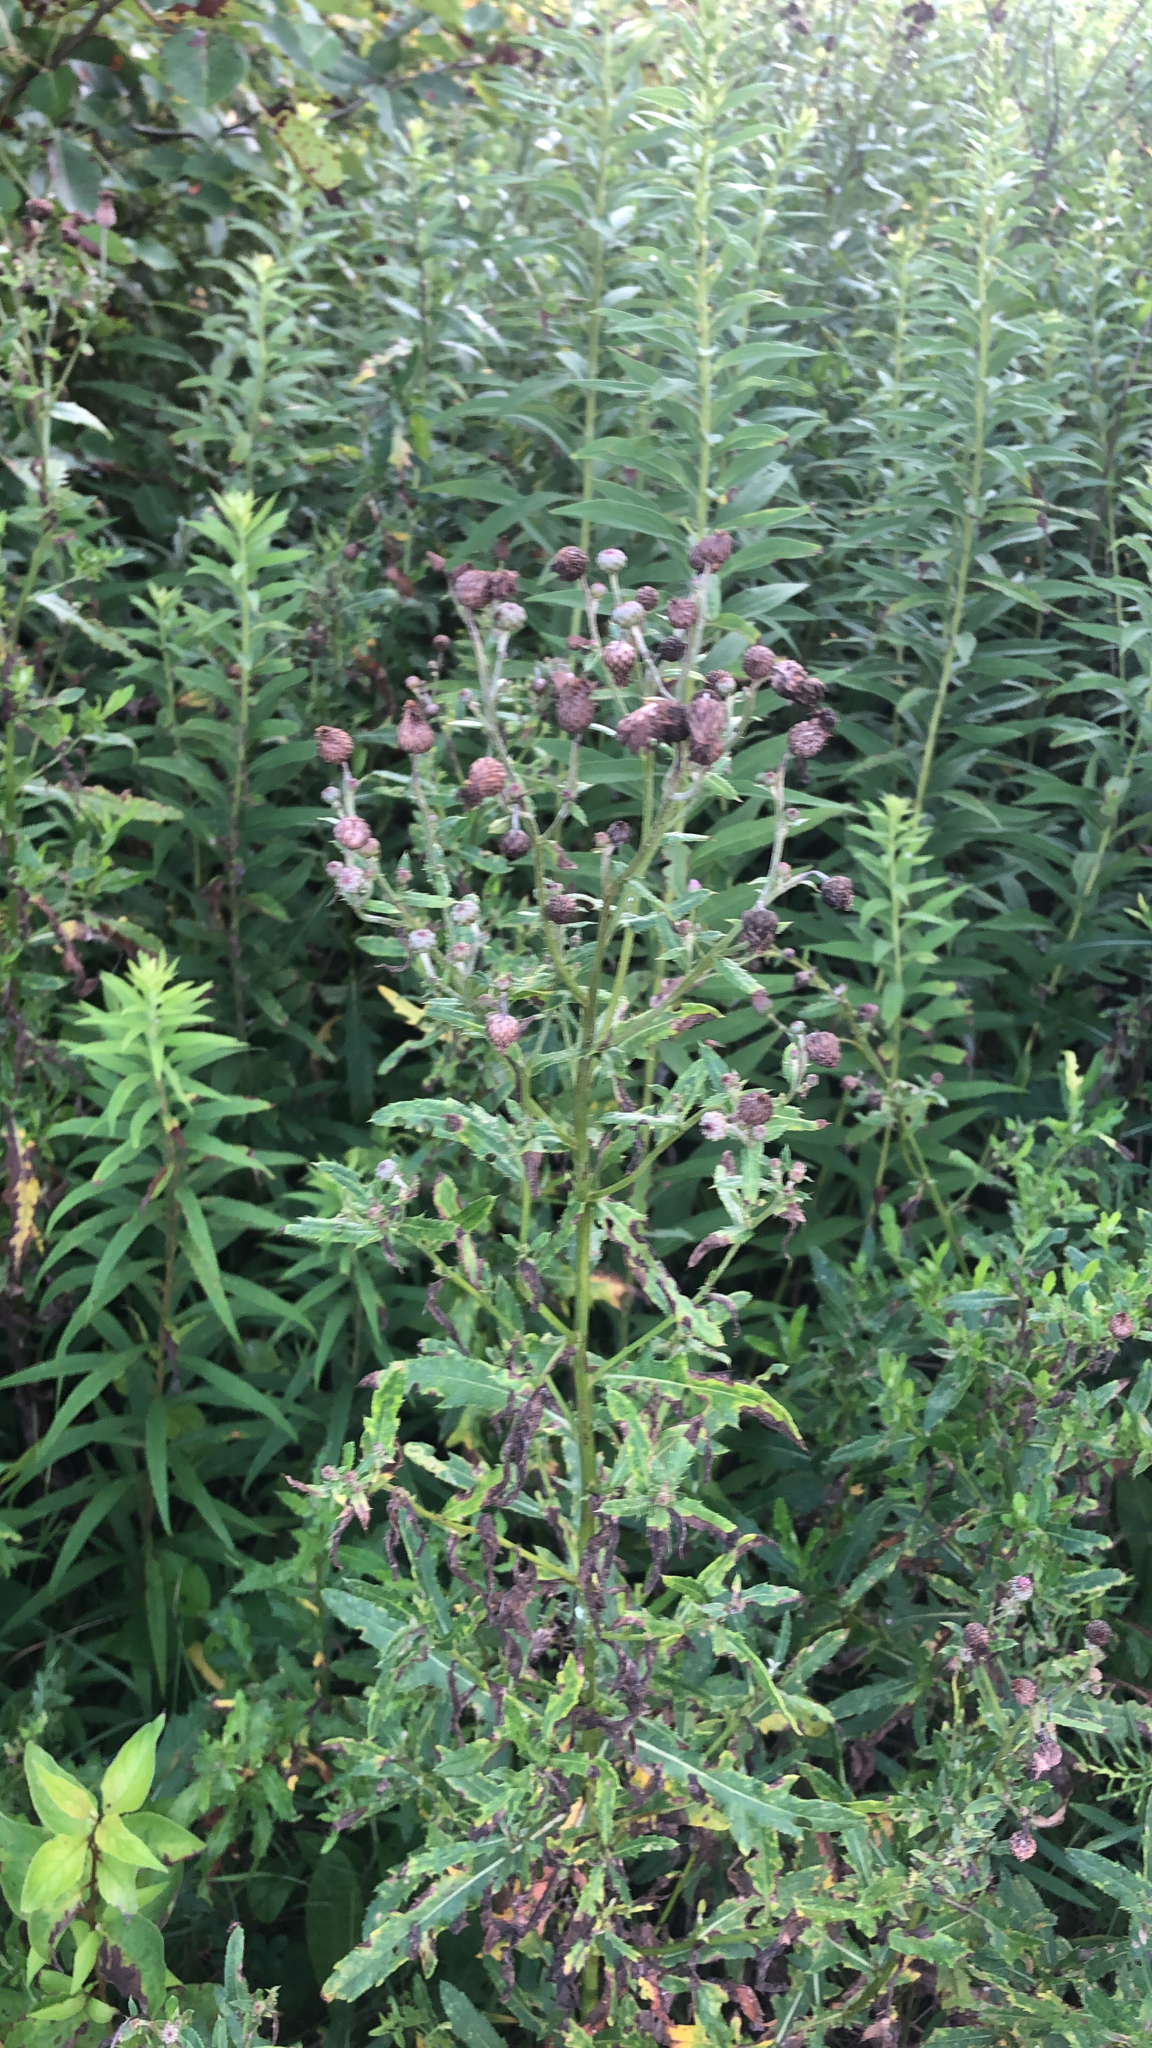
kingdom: Plantae
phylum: Tracheophyta
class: Magnoliopsida
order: Asterales
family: Asteraceae
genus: Cirsium
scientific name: Cirsium arvense
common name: Creeping thistle
